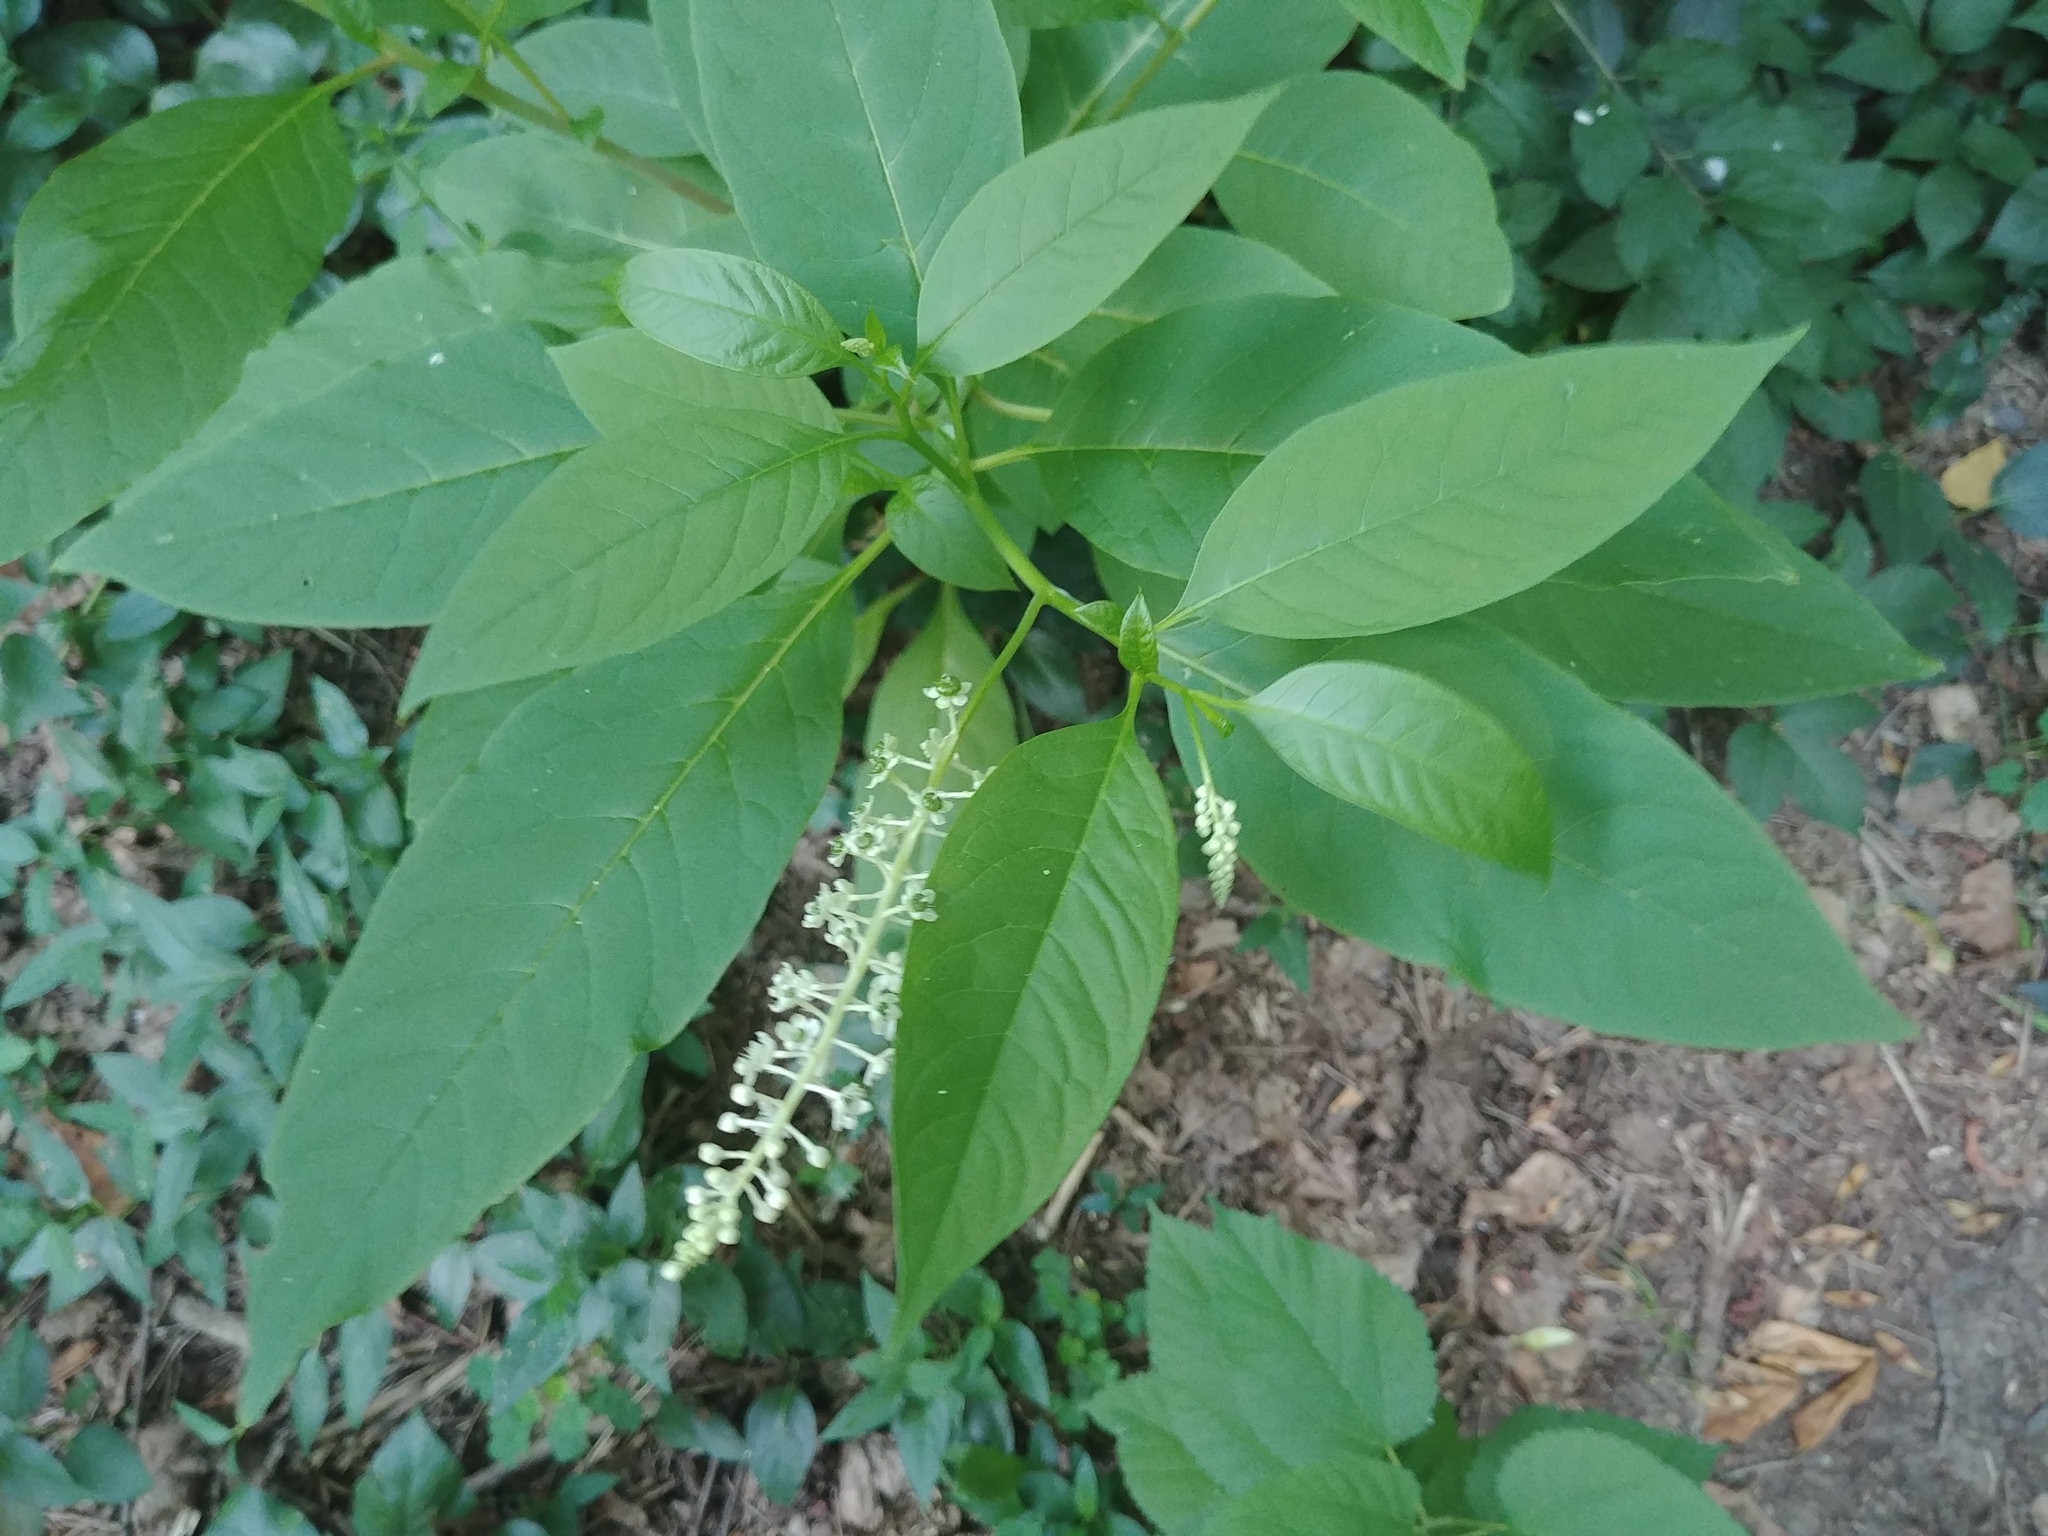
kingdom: Plantae
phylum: Tracheophyta
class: Magnoliopsida
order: Caryophyllales
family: Phytolaccaceae
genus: Phytolacca
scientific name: Phytolacca americana
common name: American pokeweed
